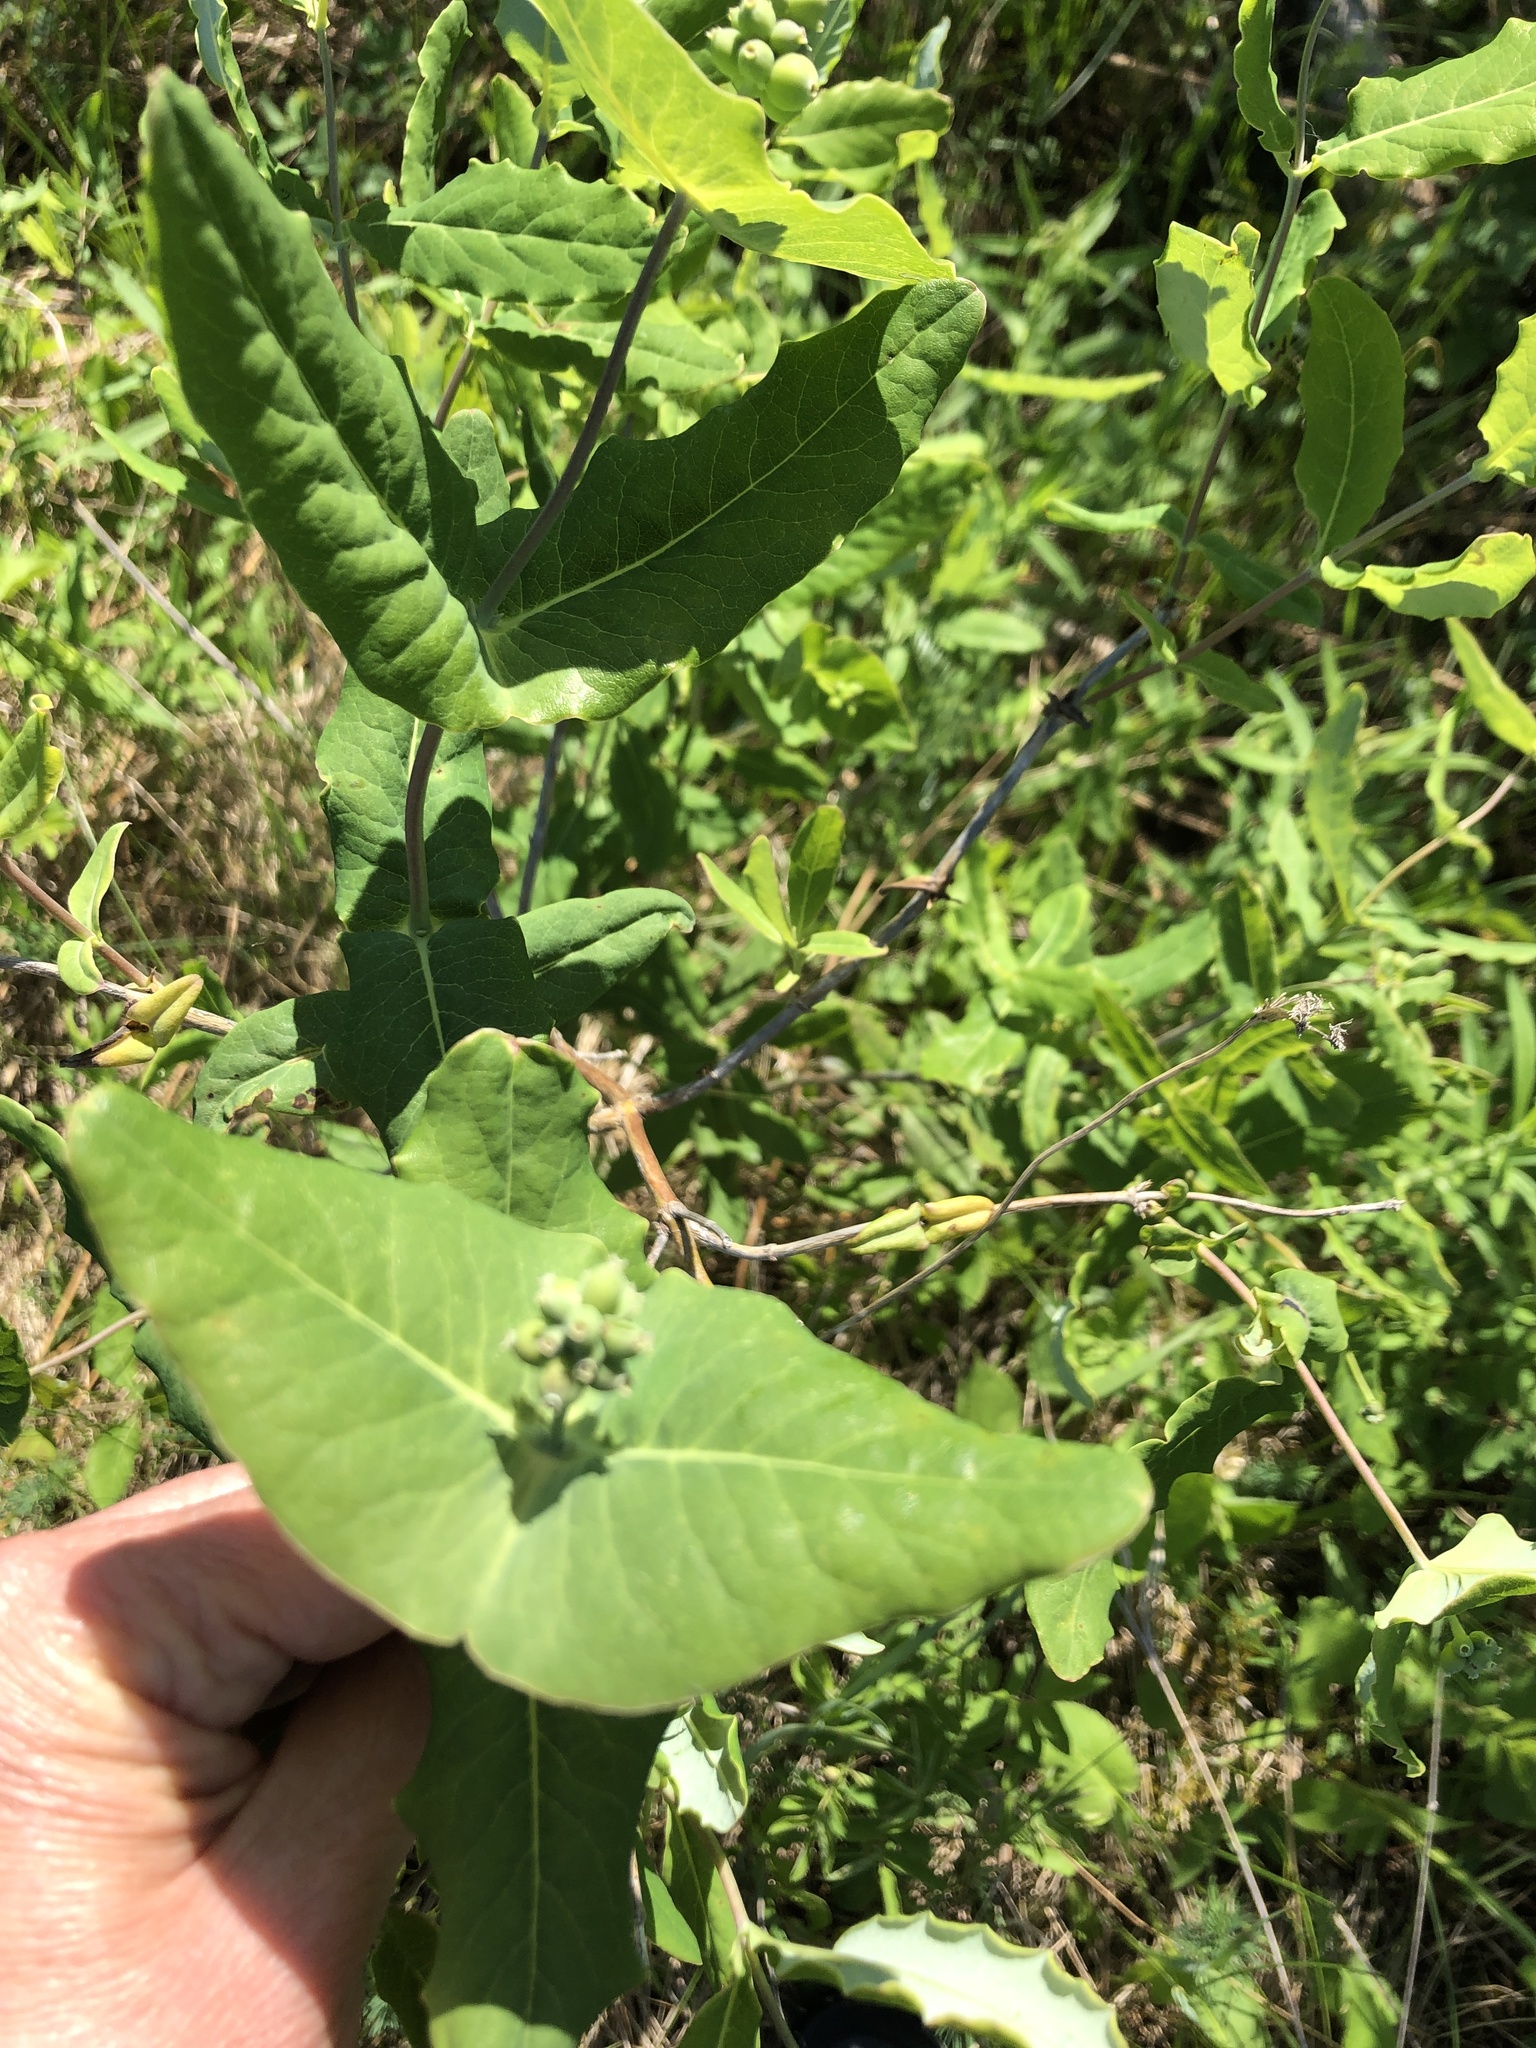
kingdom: Plantae
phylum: Tracheophyta
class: Magnoliopsida
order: Dipsacales
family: Caprifoliaceae
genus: Lonicera
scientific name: Lonicera dioica
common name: Limber honeysuckle
